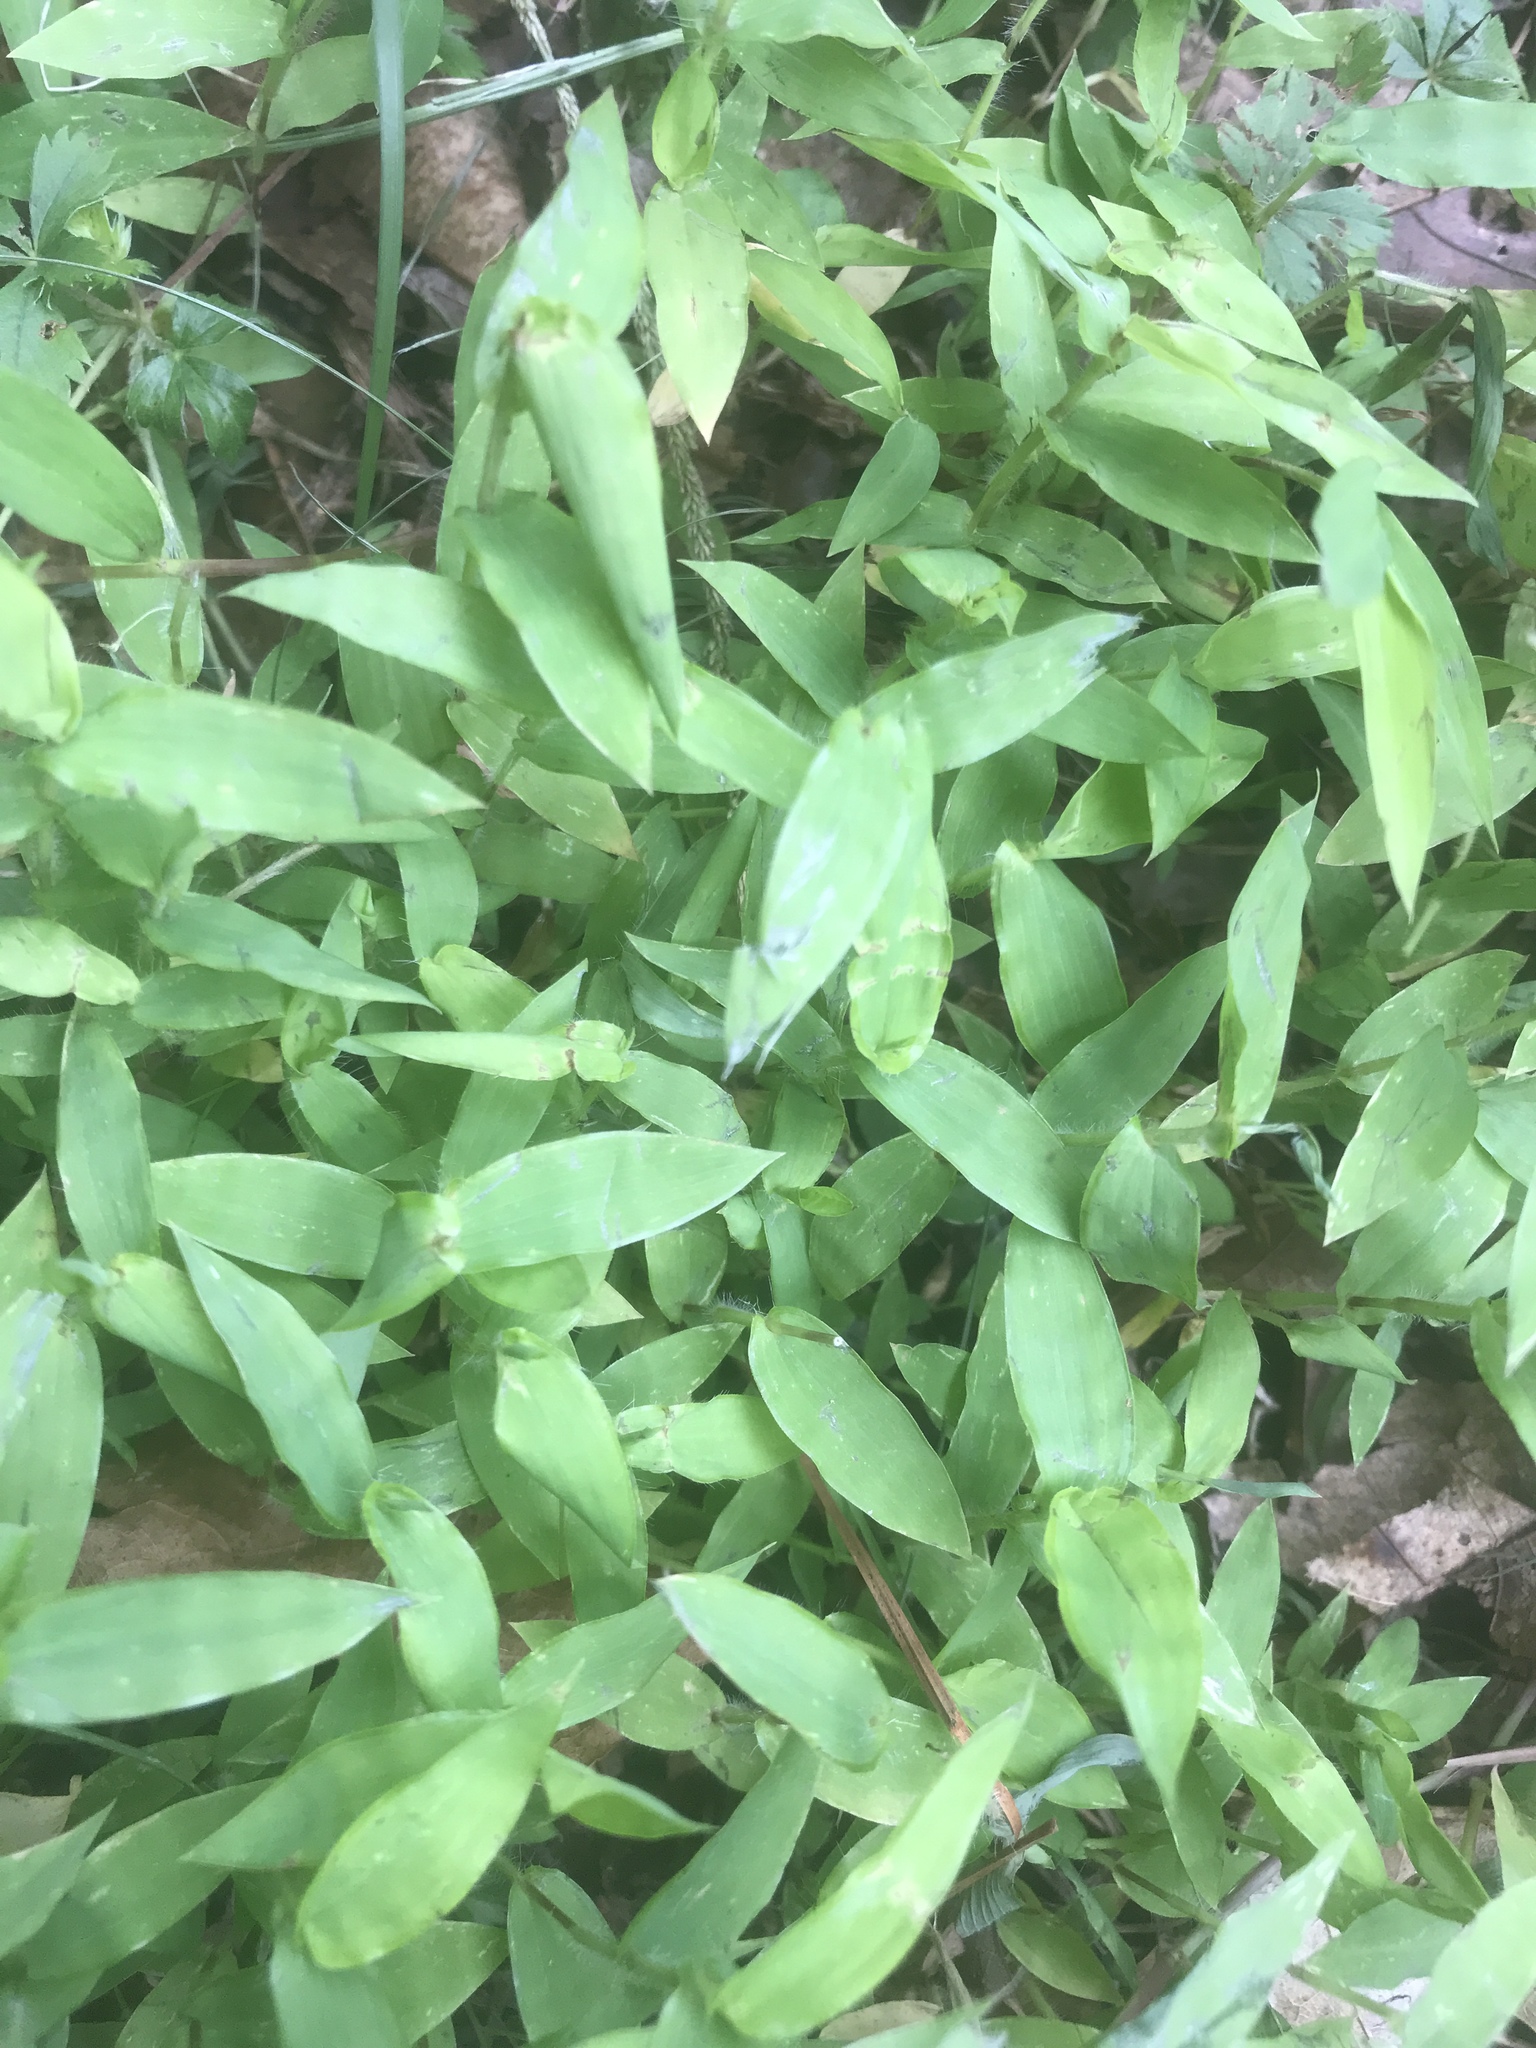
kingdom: Plantae
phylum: Tracheophyta
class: Liliopsida
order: Poales
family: Poaceae
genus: Arthraxon
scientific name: Arthraxon hispidus
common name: Small carpgrass
